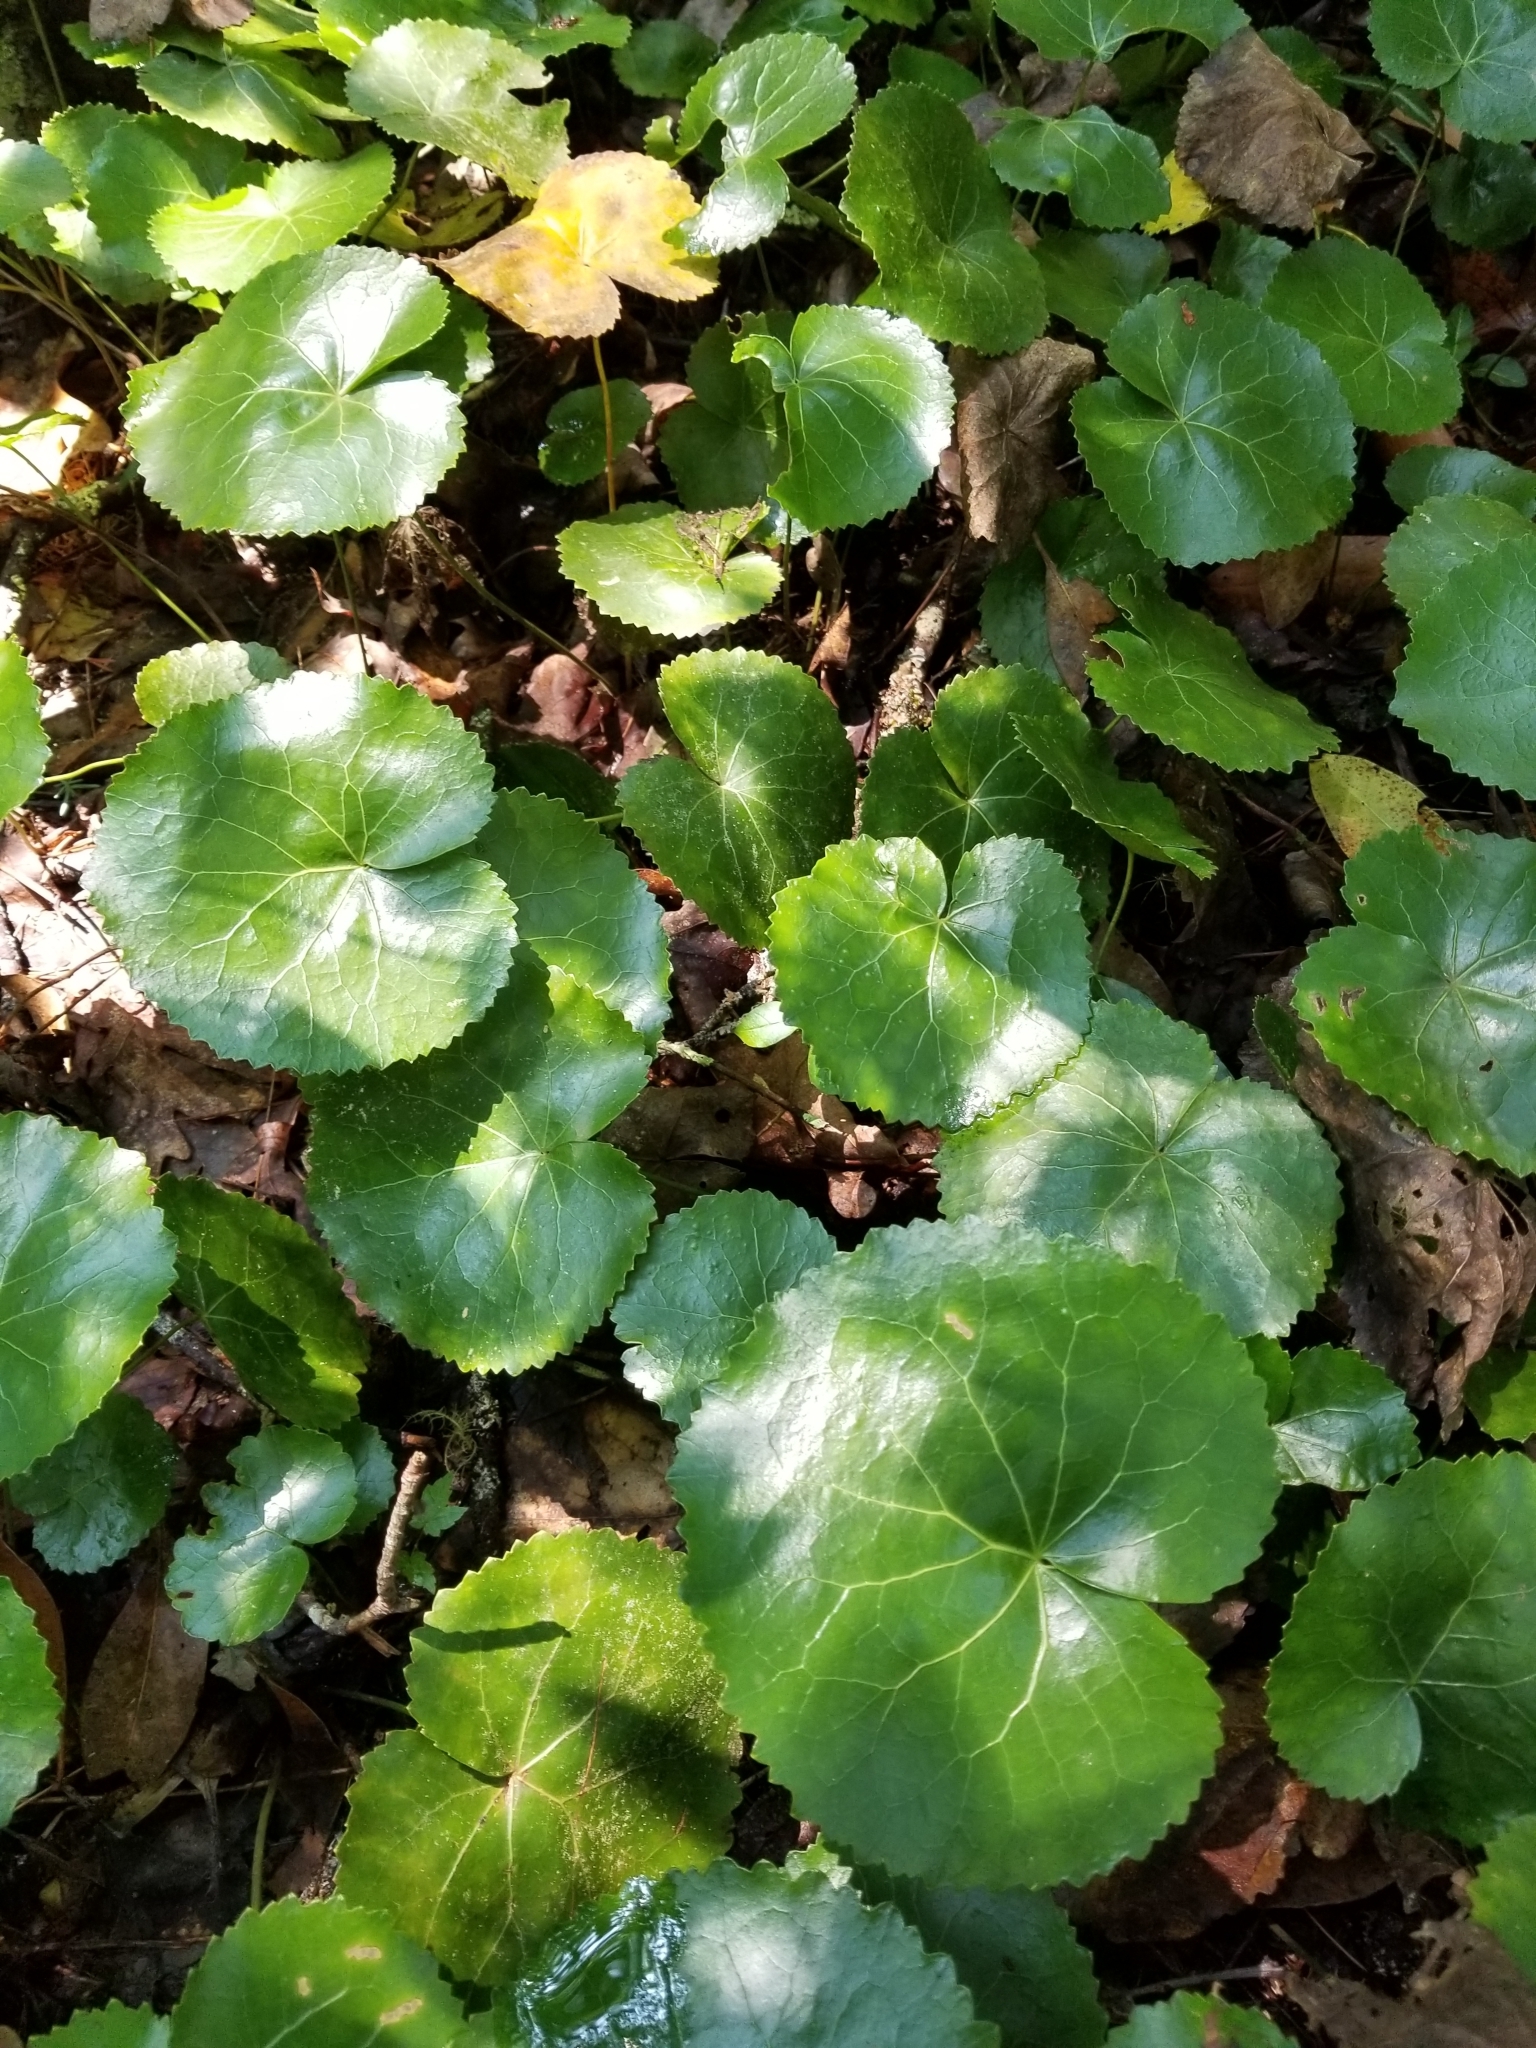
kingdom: Plantae
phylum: Tracheophyta
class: Magnoliopsida
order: Ericales
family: Diapensiaceae
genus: Galax
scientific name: Galax urceolata
